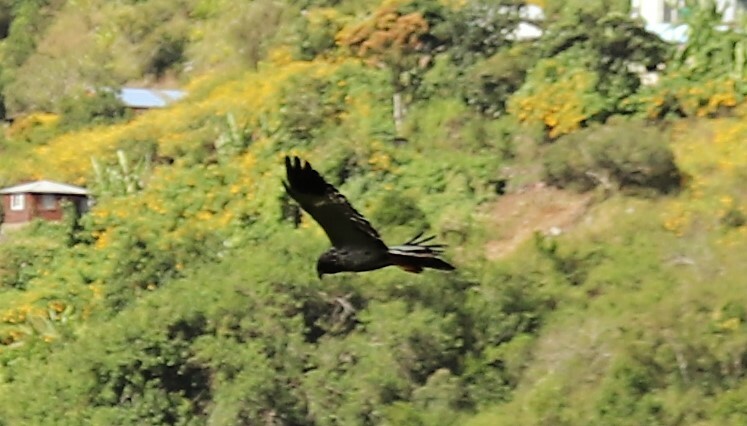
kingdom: Animalia
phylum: Chordata
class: Aves
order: Accipitriformes
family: Accipitridae
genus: Circus
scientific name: Circus maillardi
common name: Reunion harrier
